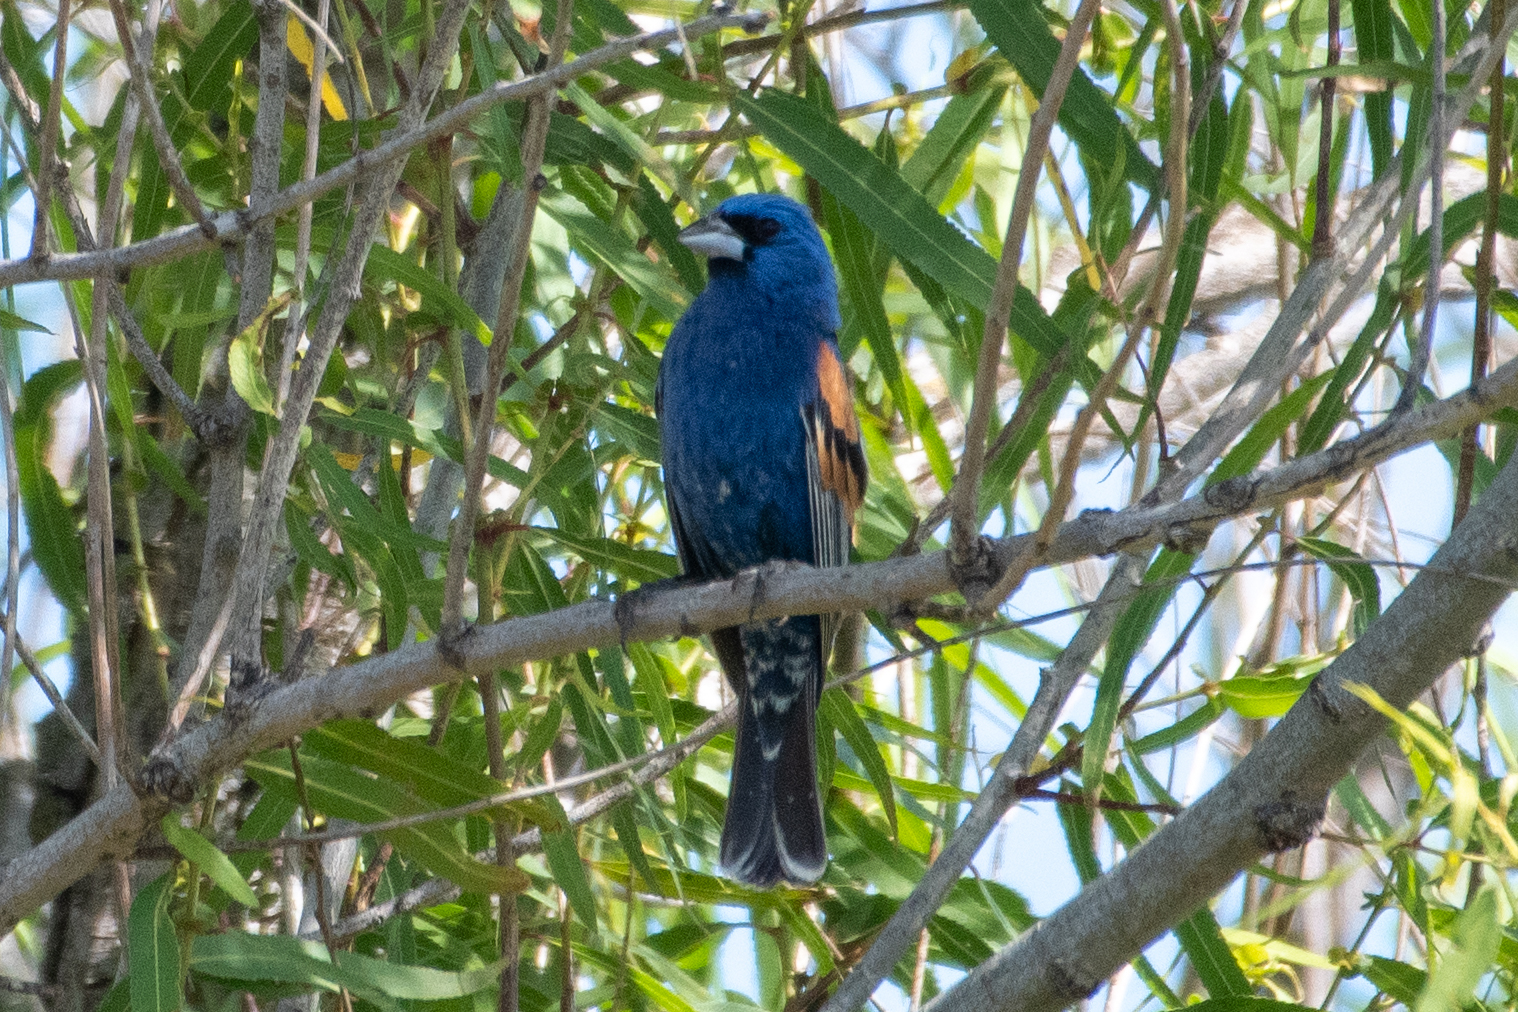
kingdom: Animalia
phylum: Chordata
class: Aves
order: Passeriformes
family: Cardinalidae
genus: Passerina
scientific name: Passerina caerulea
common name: Blue grosbeak
